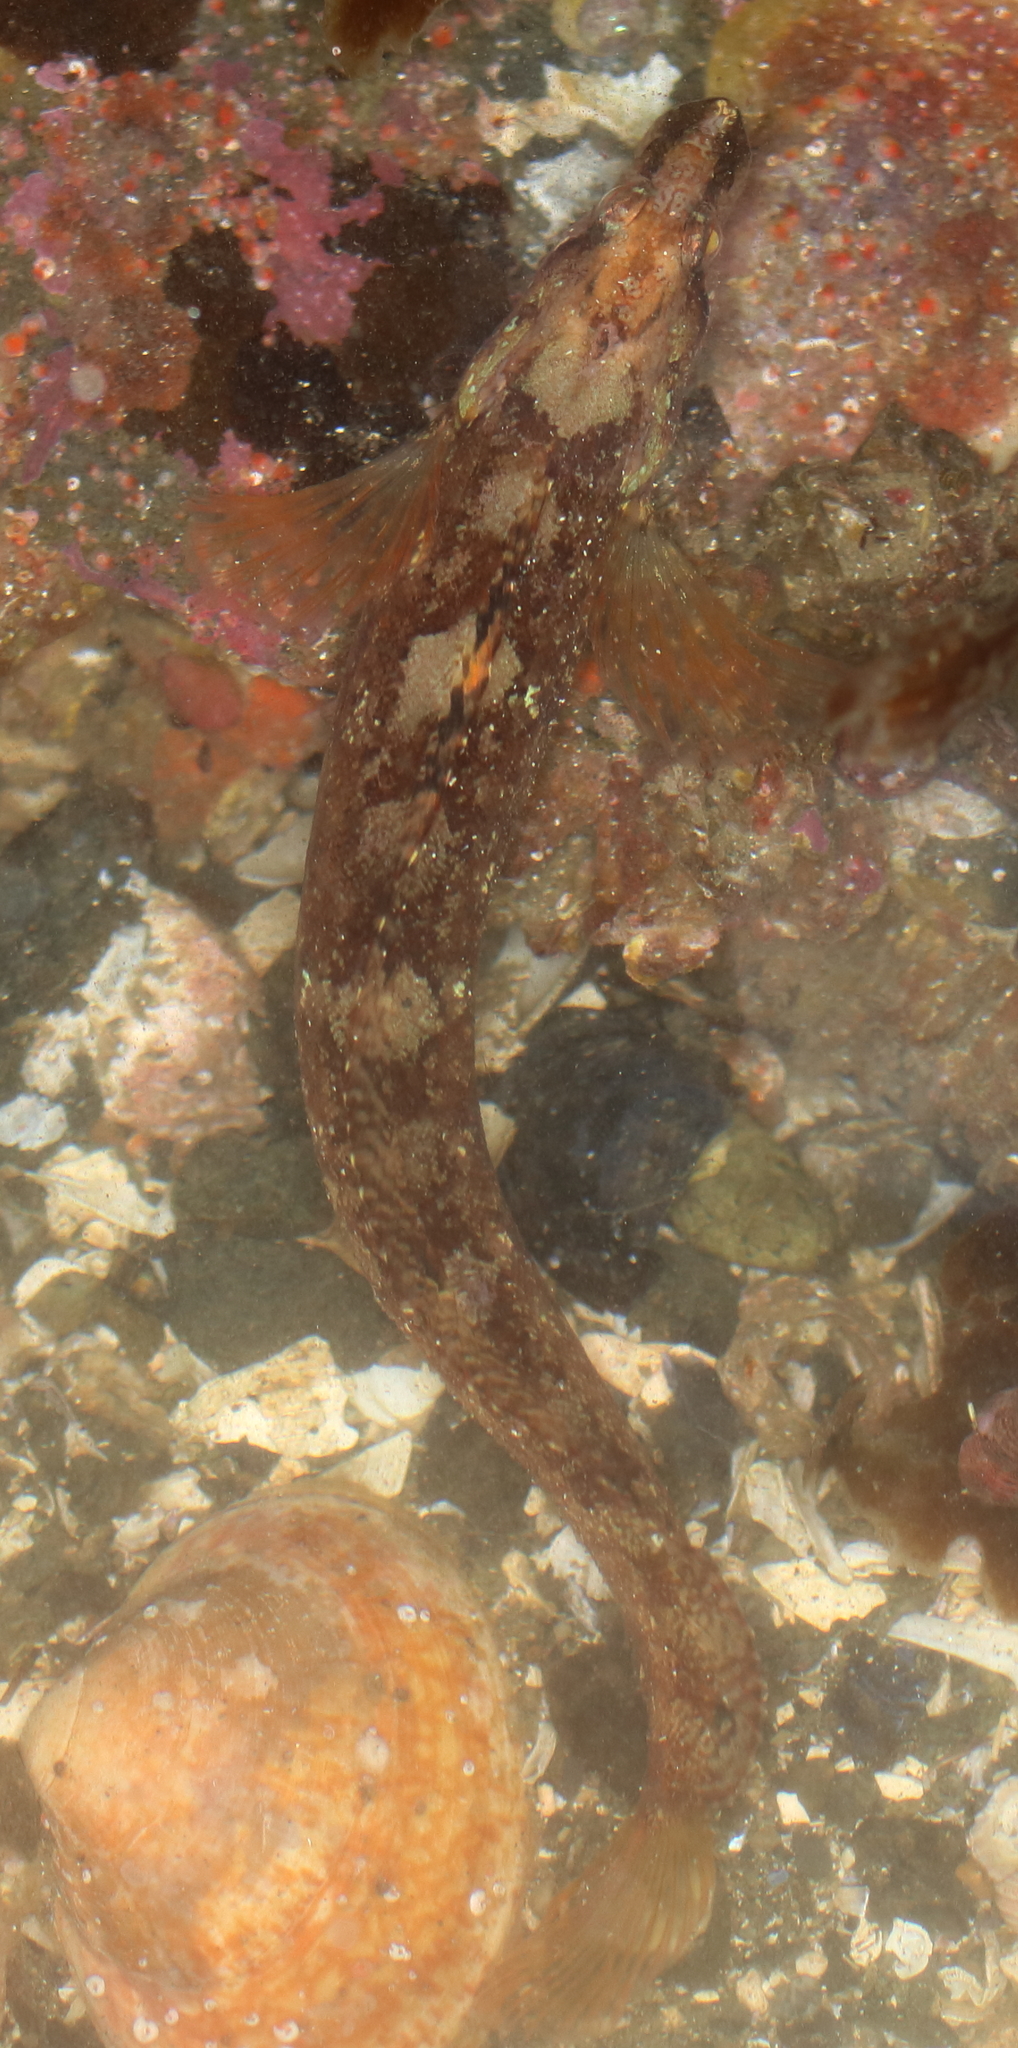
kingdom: Animalia
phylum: Chordata
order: Perciformes
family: Stichaeidae
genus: Stichaeus
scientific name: Stichaeus punctatus
